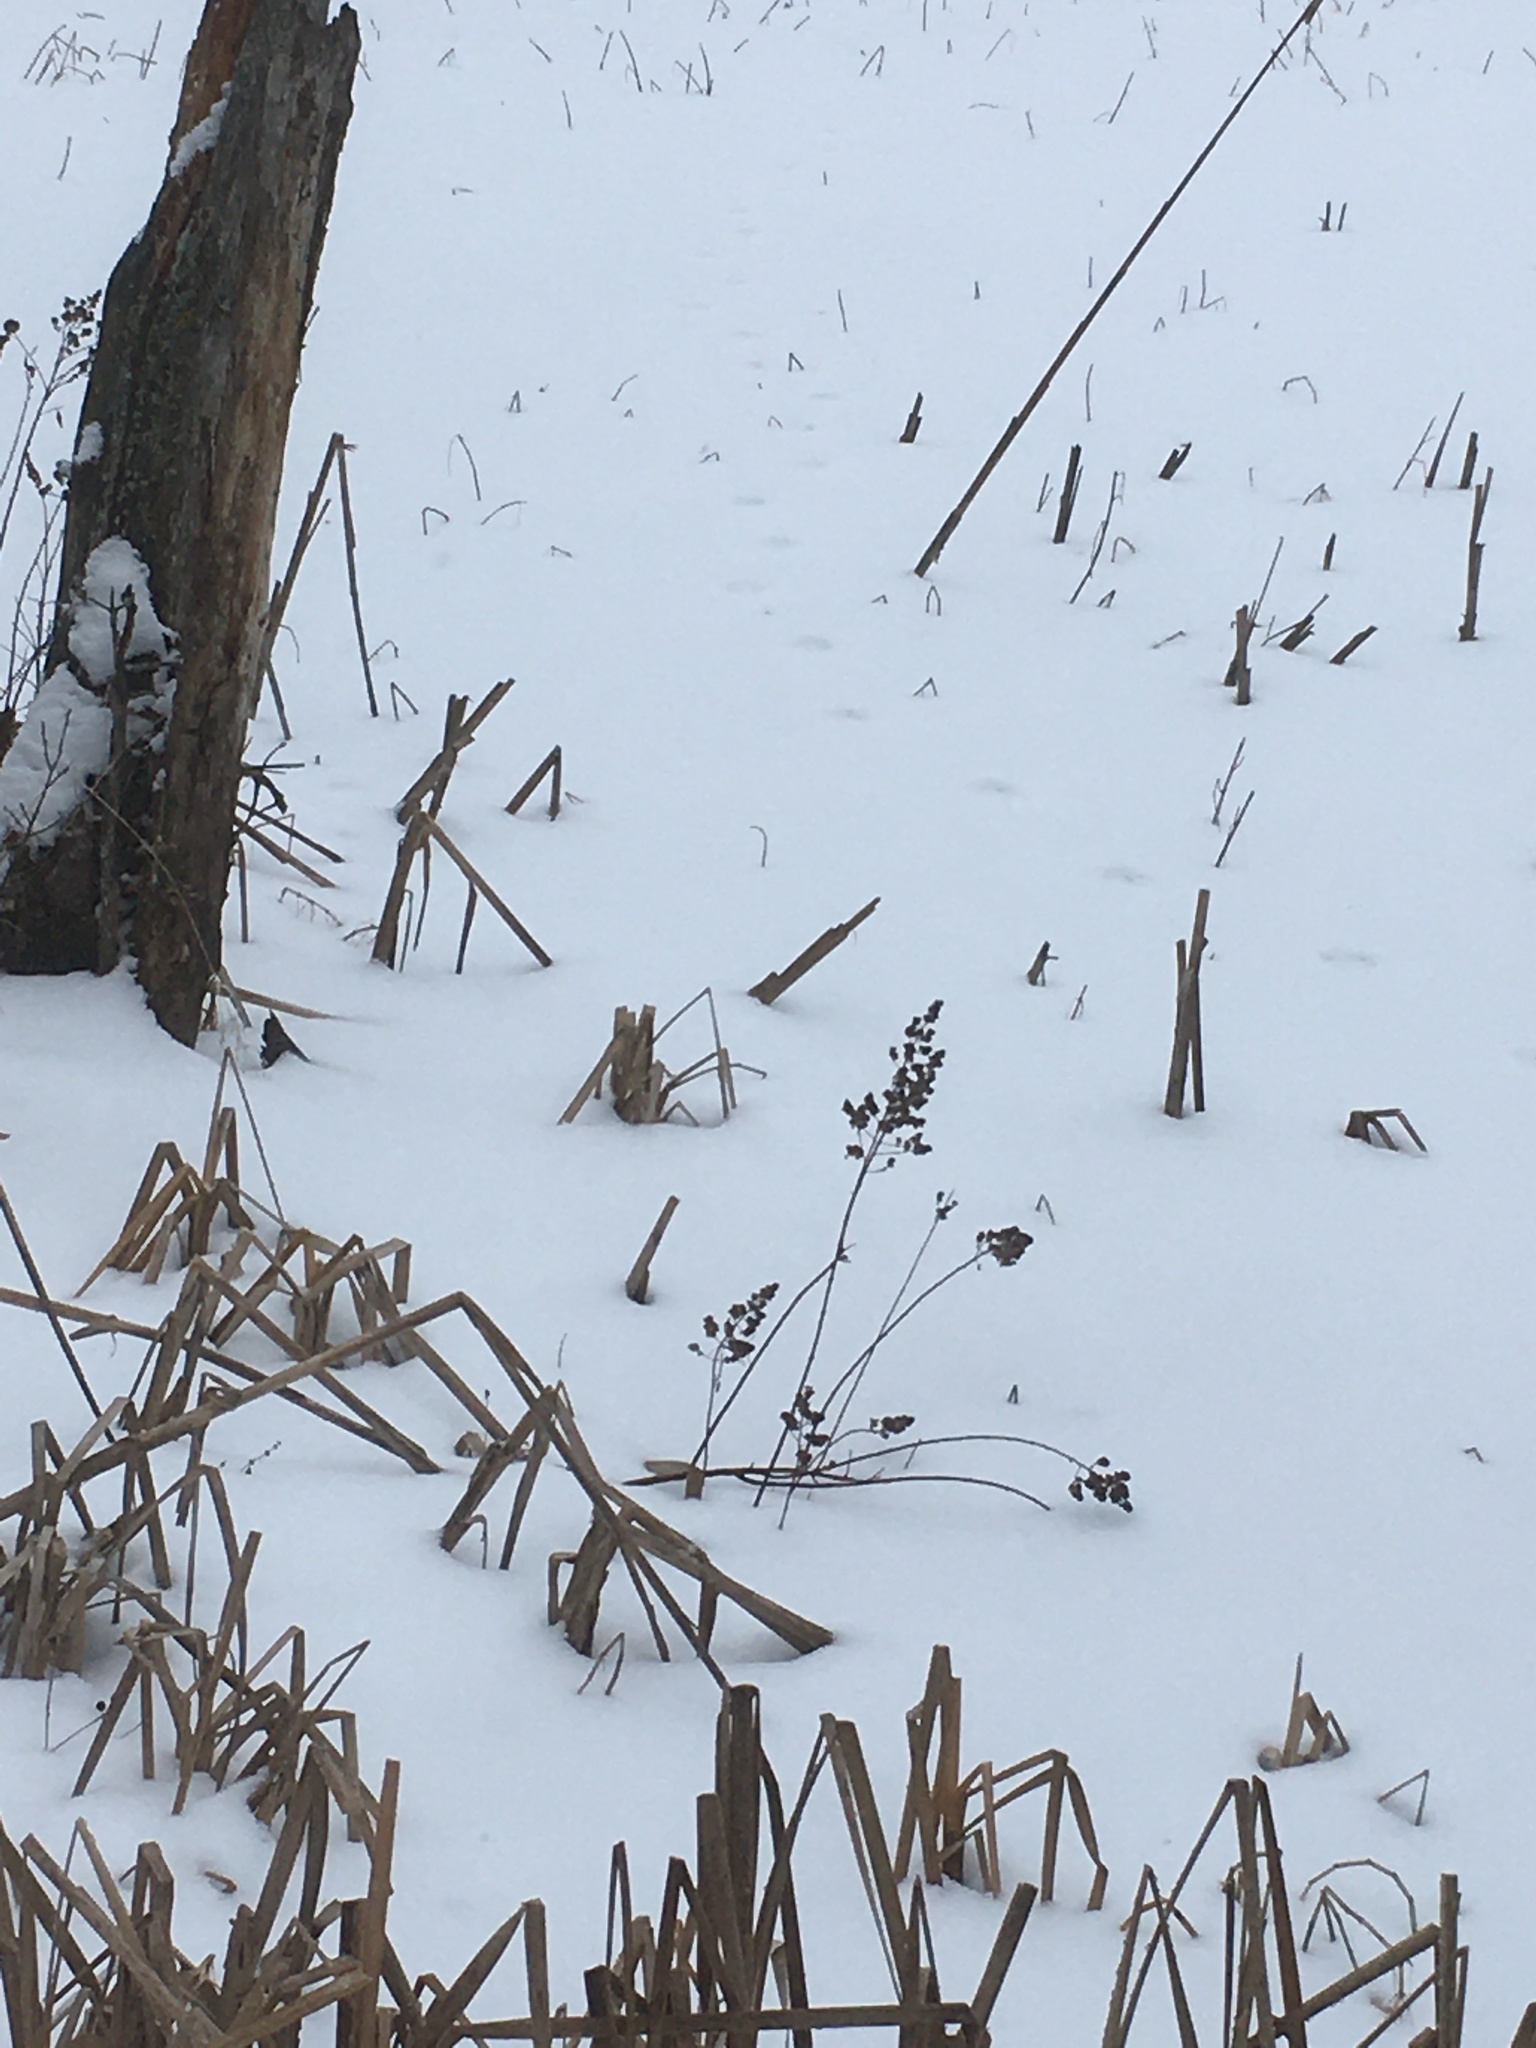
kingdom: Plantae
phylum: Tracheophyta
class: Magnoliopsida
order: Rosales
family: Rosaceae
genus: Spiraea
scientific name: Spiraea alba
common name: Pale bridewort
